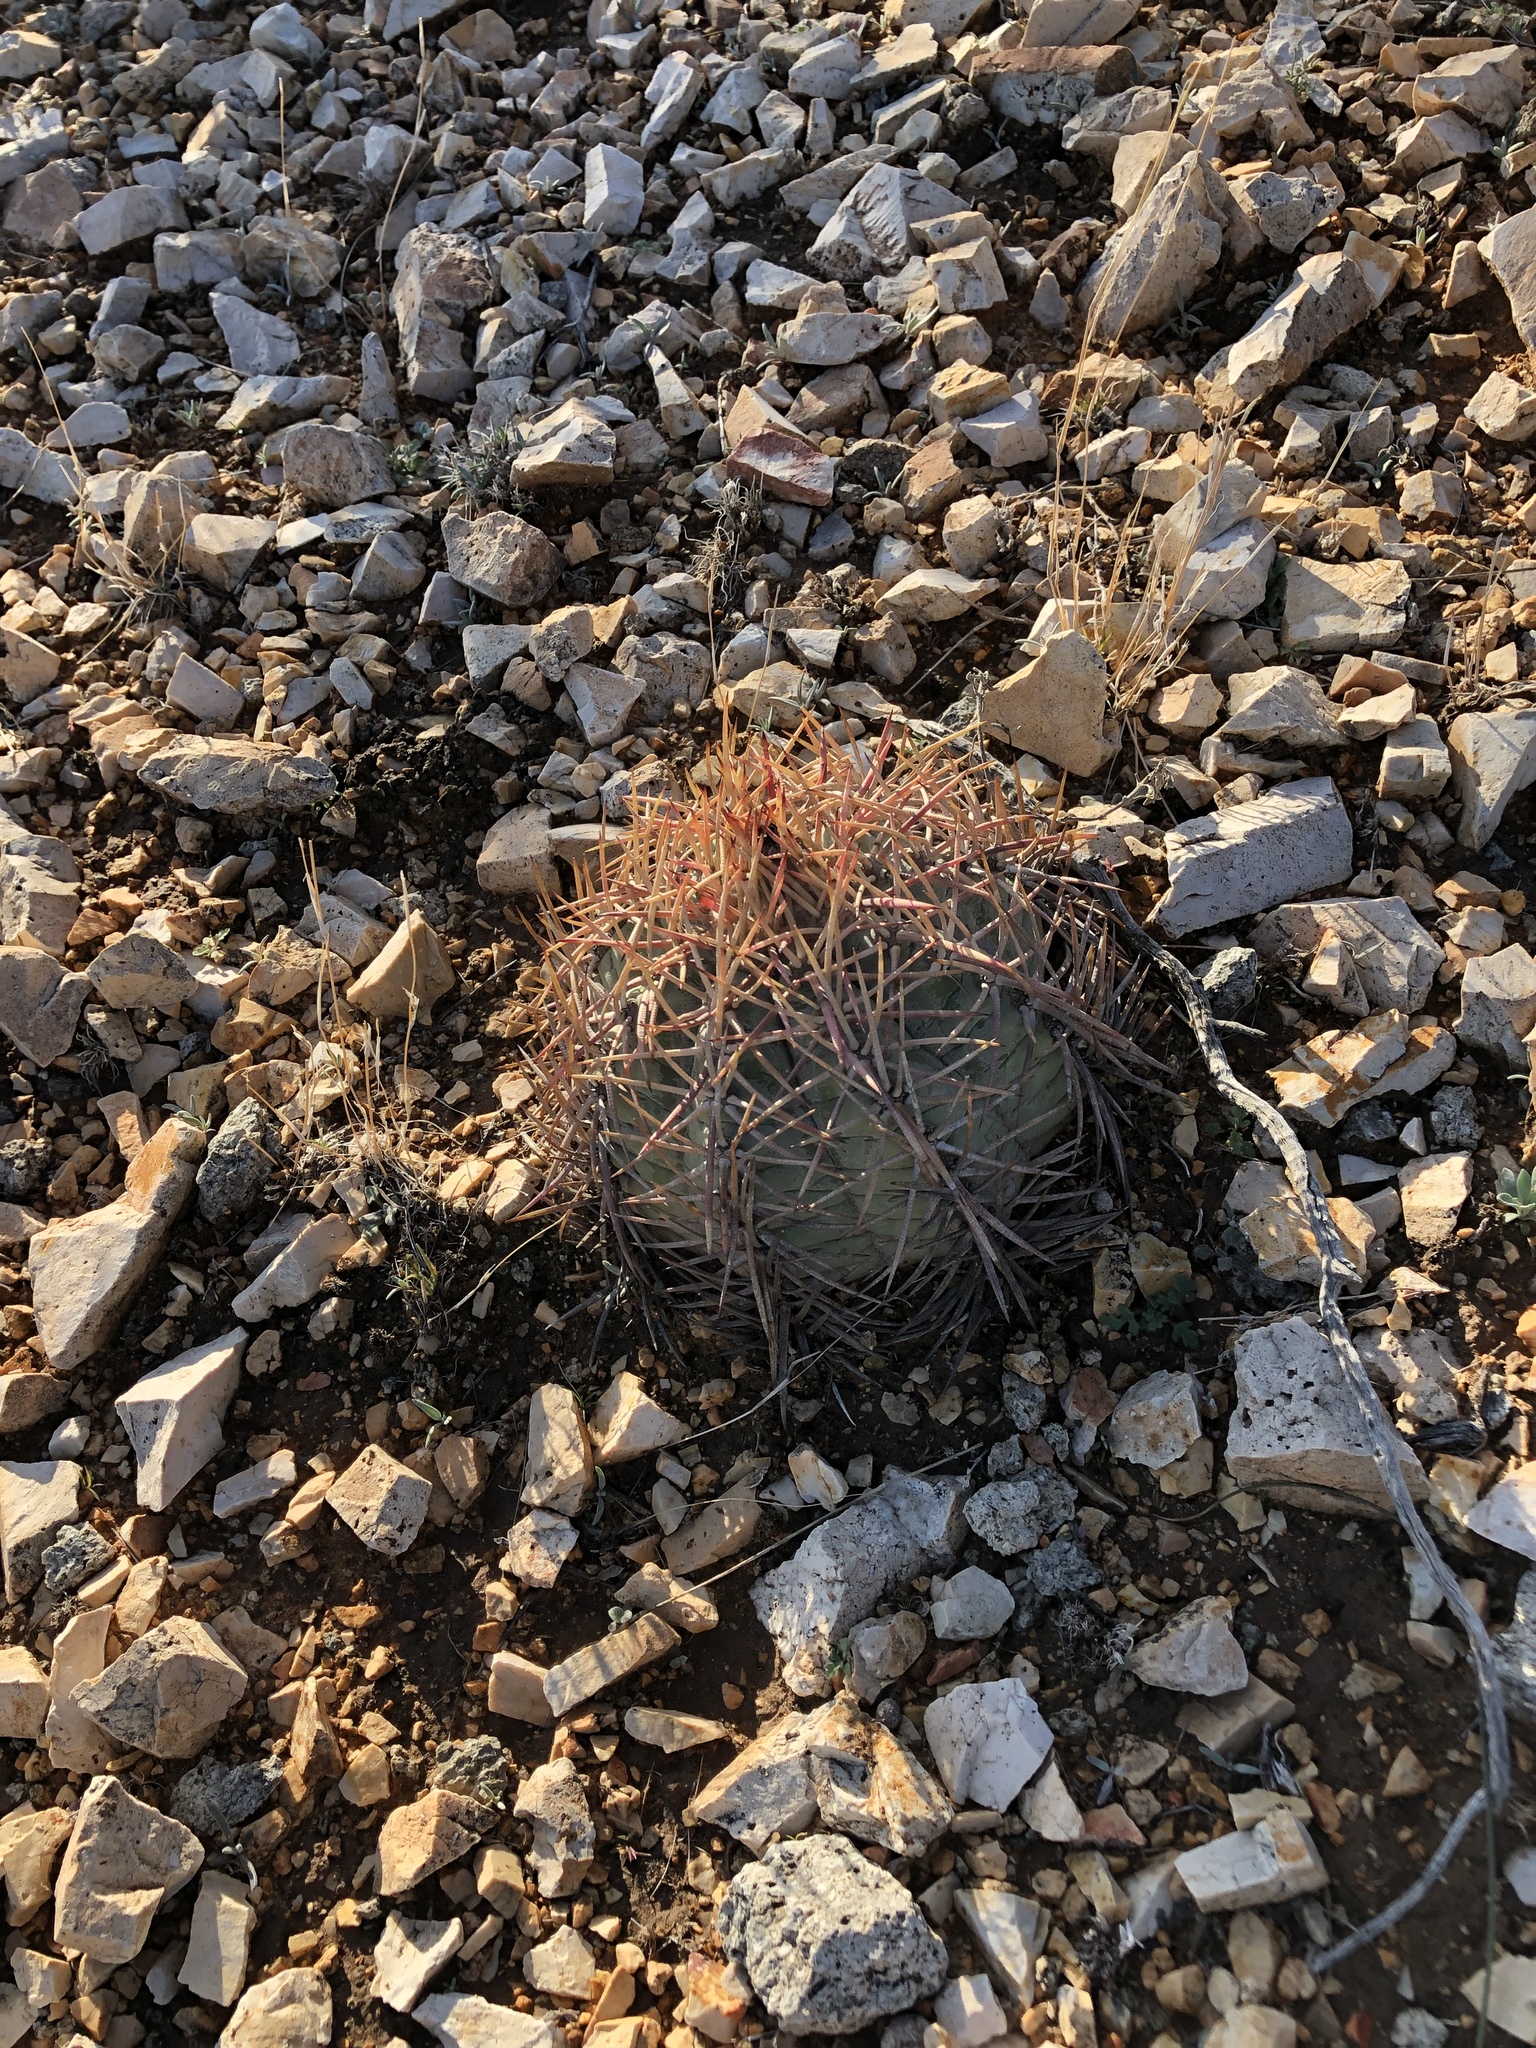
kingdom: Plantae
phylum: Tracheophyta
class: Magnoliopsida
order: Caryophyllales
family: Cactaceae
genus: Echinocactus
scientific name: Echinocactus horizonthalonius
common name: Devilshead
